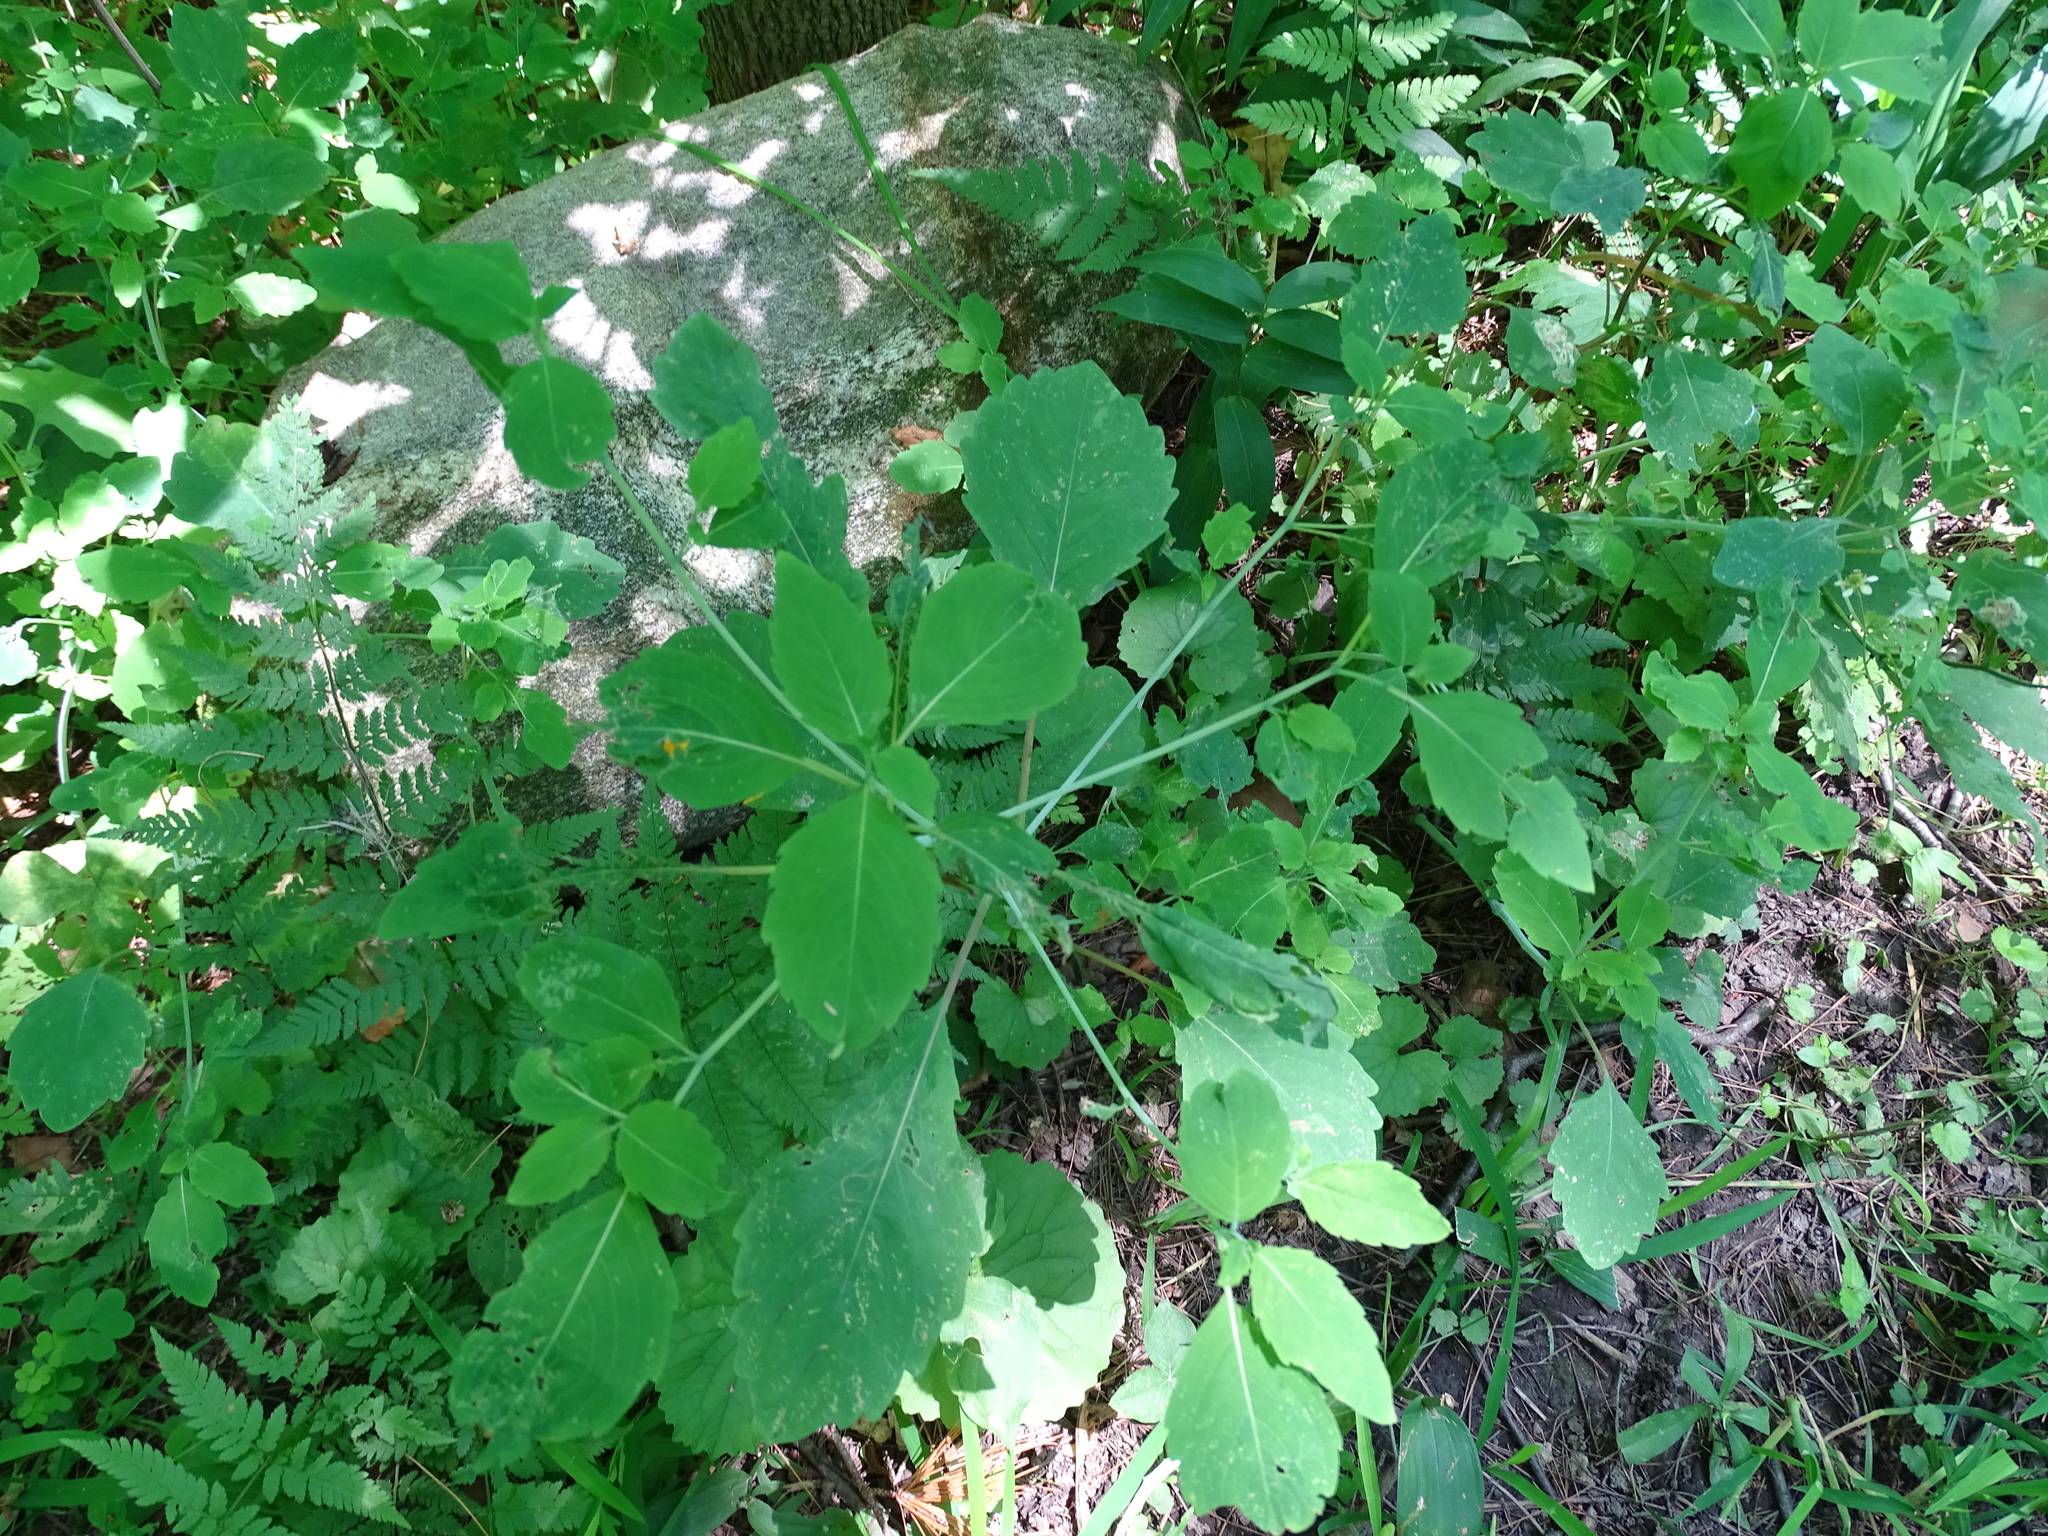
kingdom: Plantae
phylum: Tracheophyta
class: Magnoliopsida
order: Ericales
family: Balsaminaceae
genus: Impatiens
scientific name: Impatiens capensis
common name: Orange balsam
